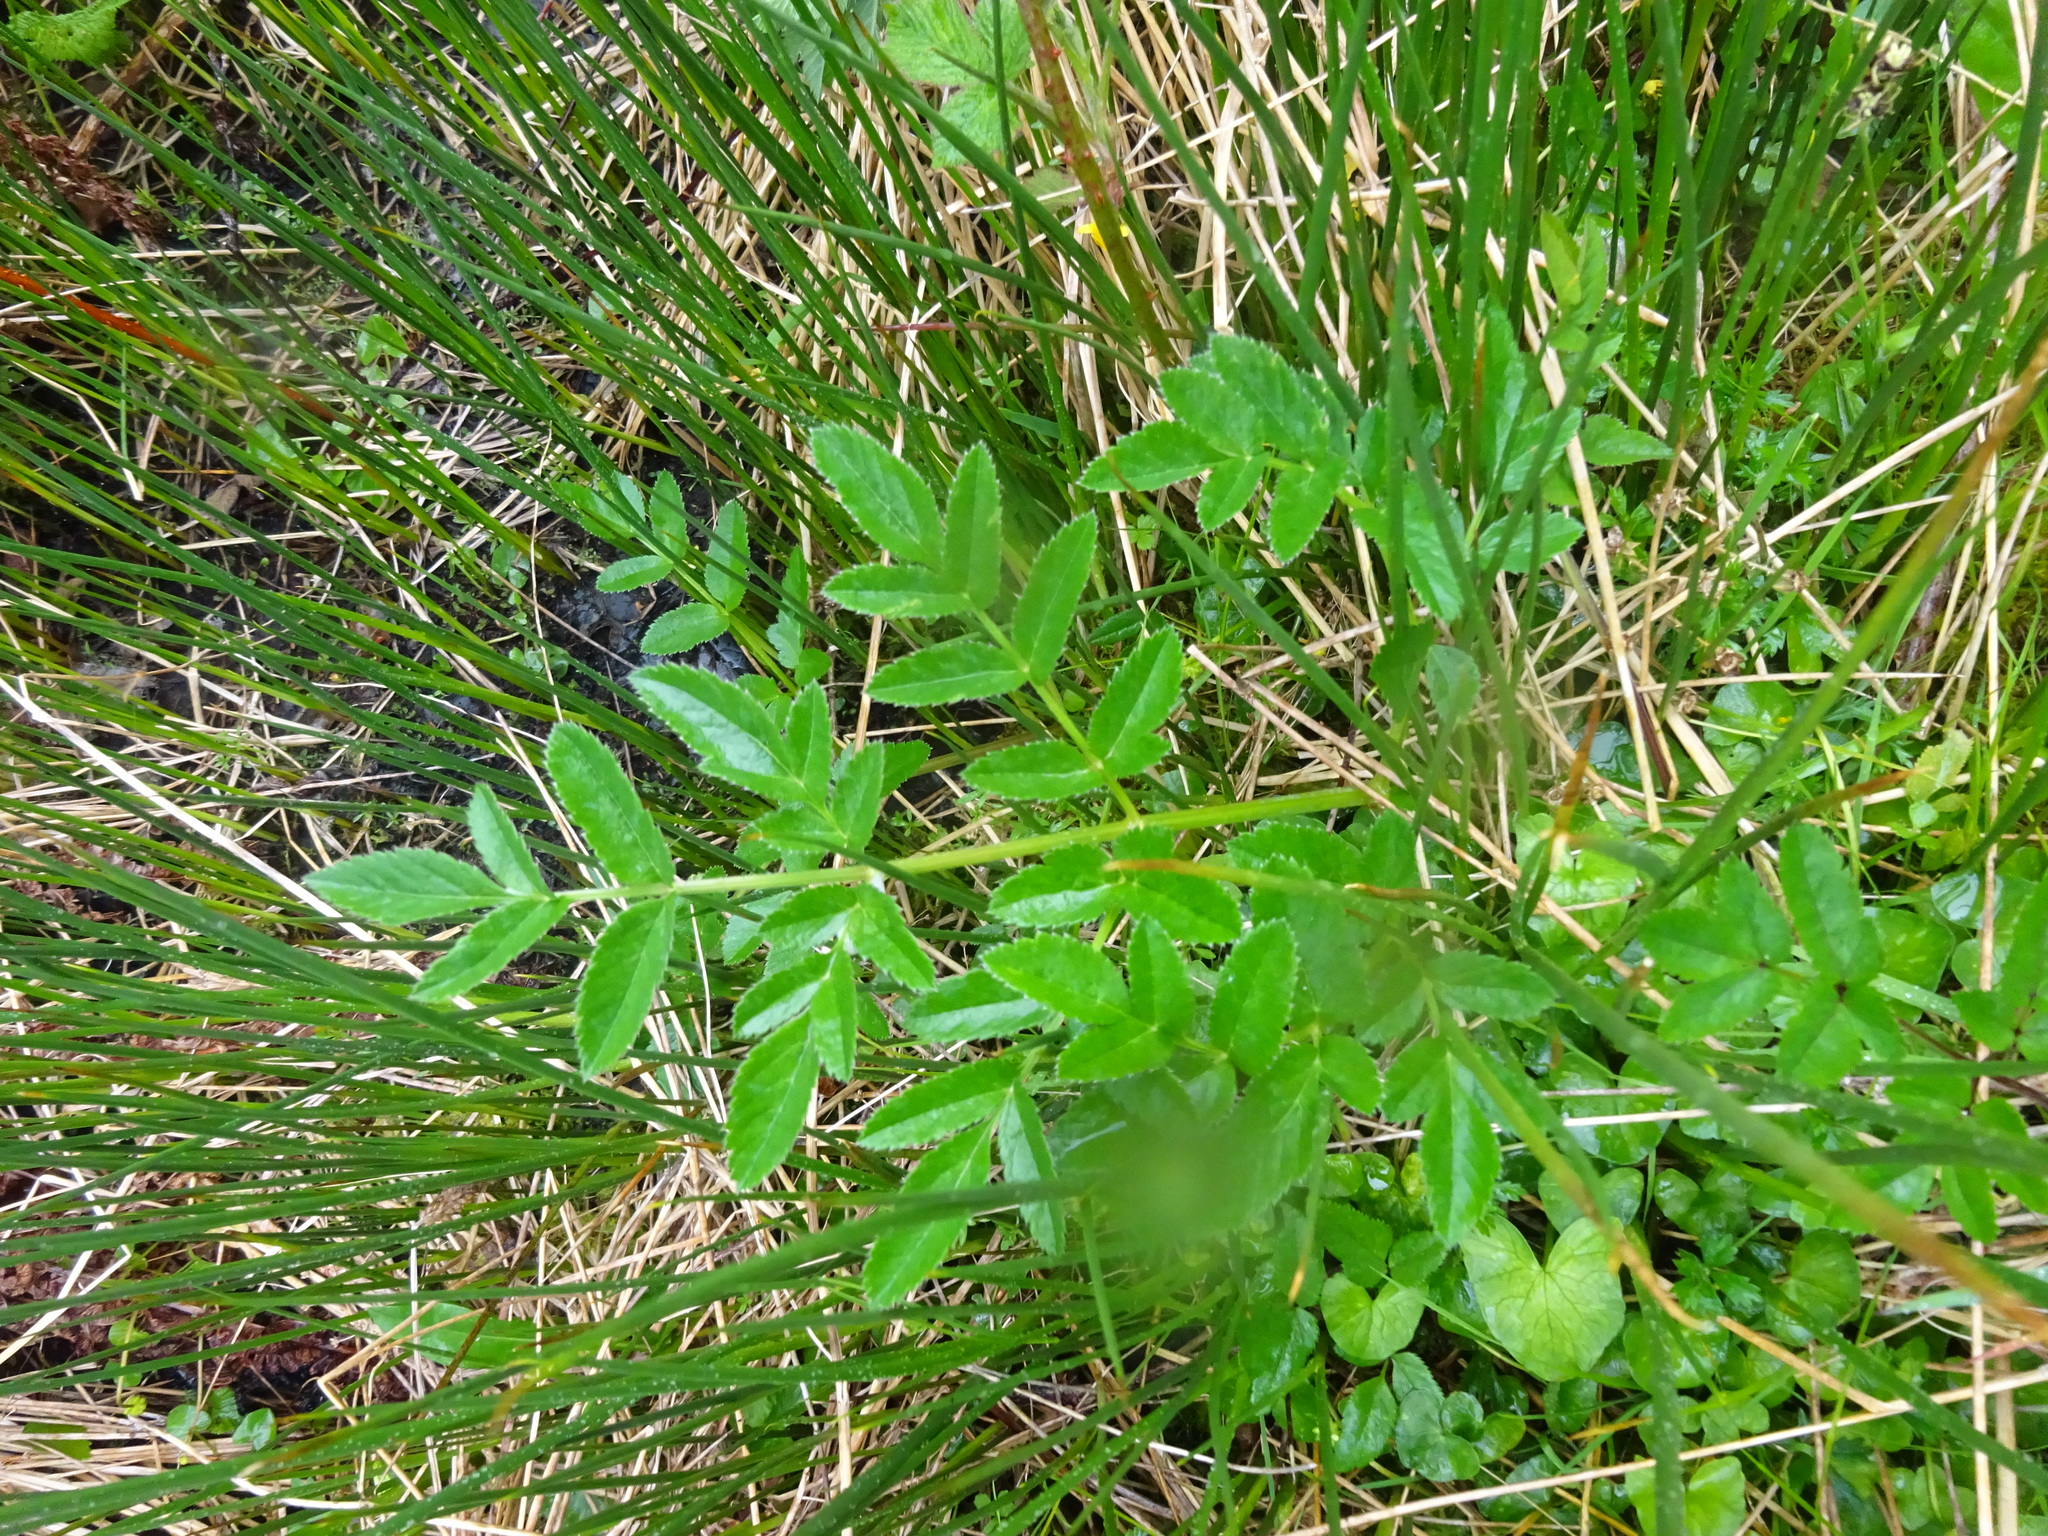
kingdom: Plantae
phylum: Tracheophyta
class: Magnoliopsida
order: Apiales
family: Apiaceae
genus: Angelica
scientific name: Angelica sylvestris
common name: Wild angelica
